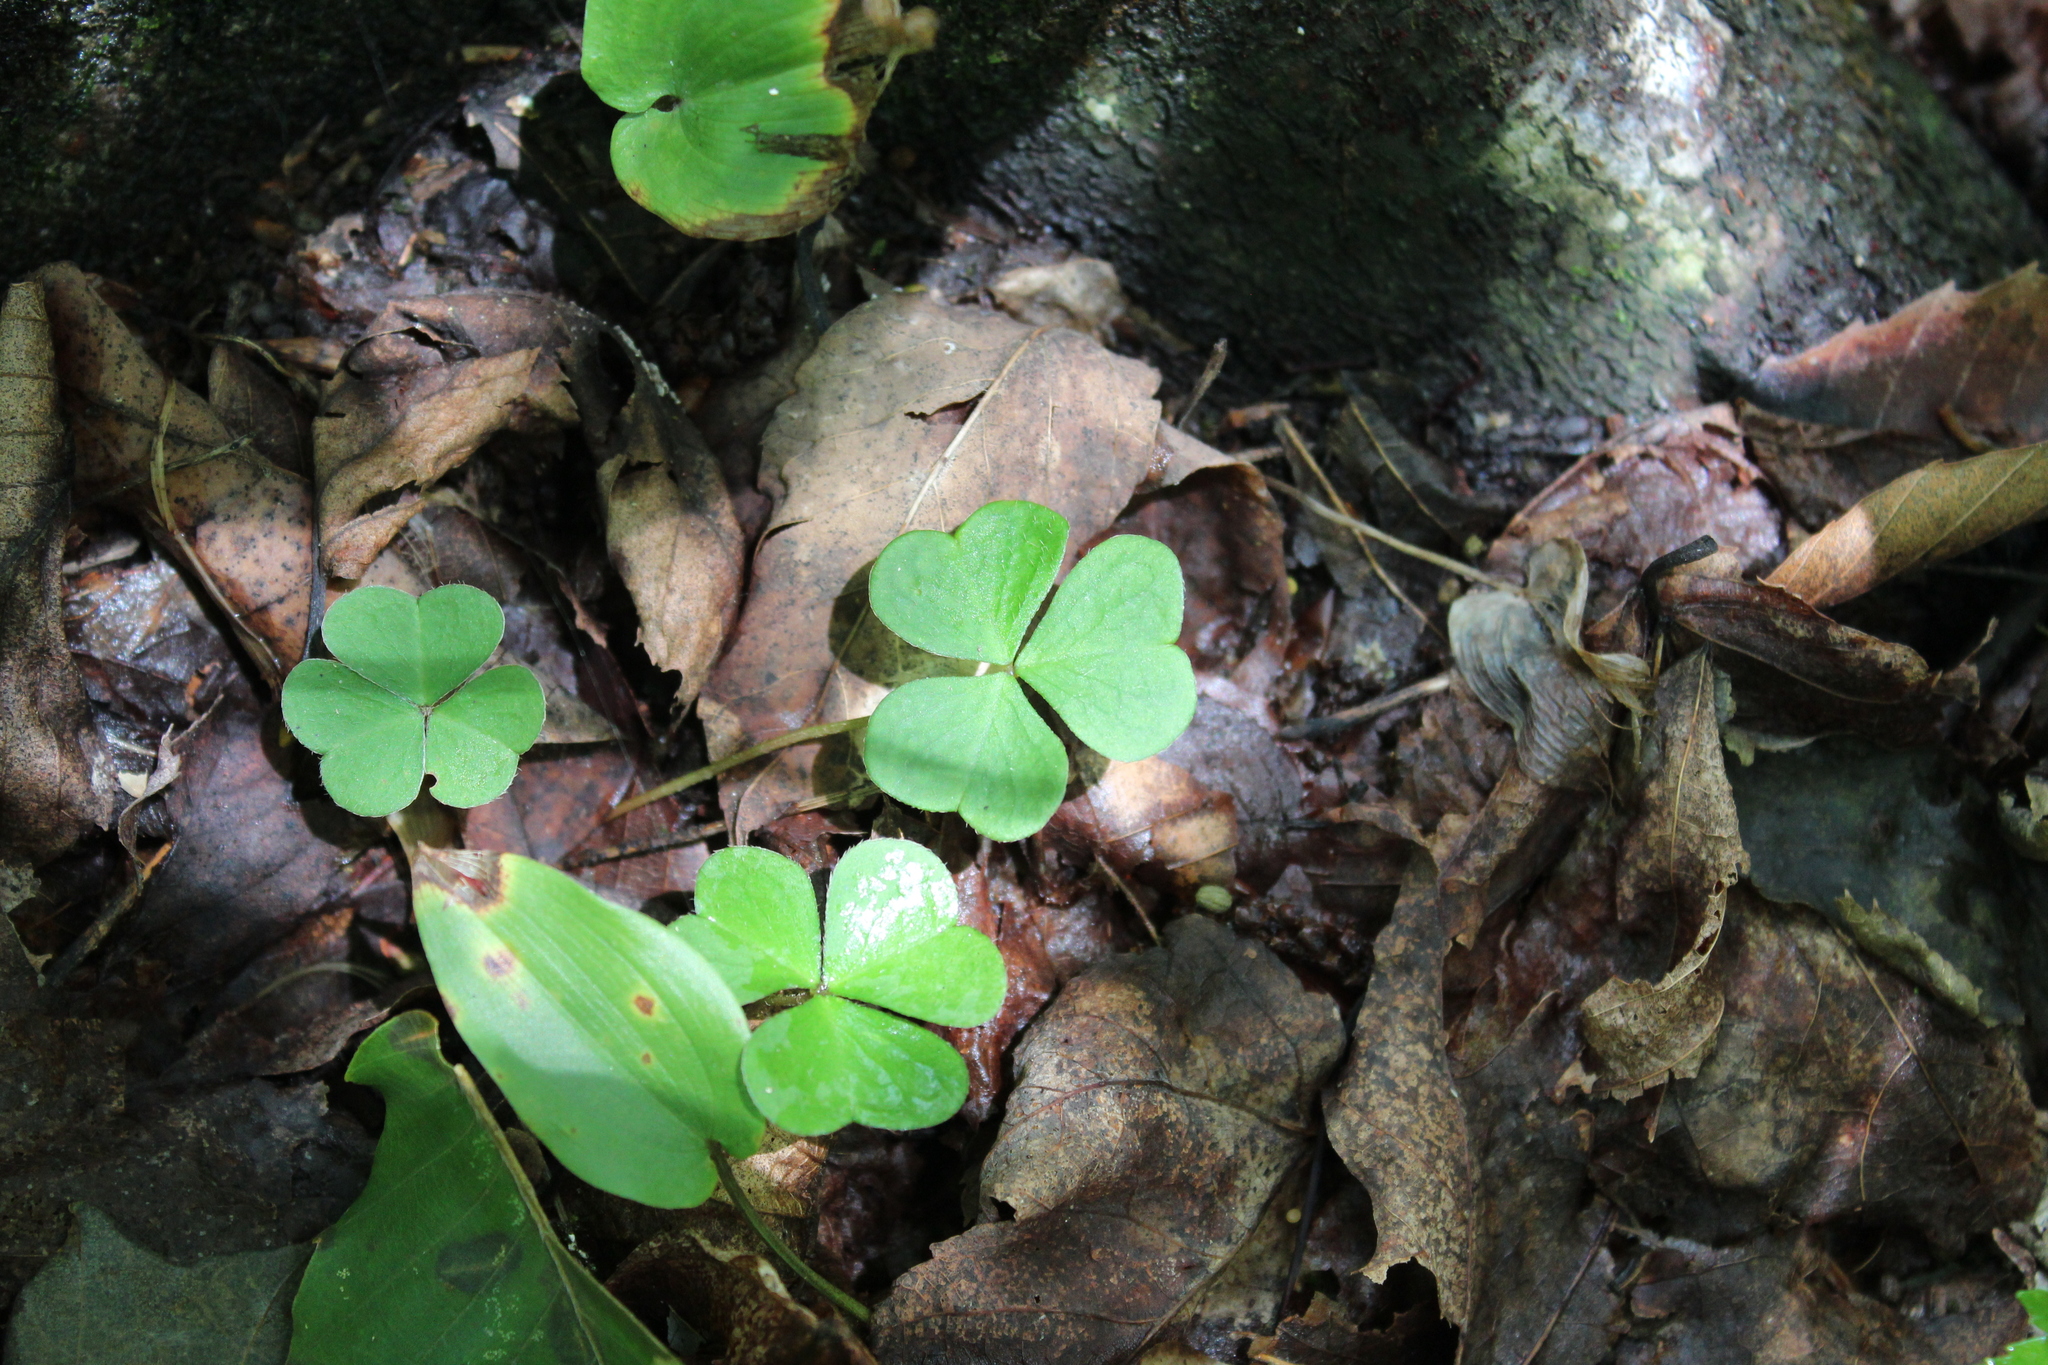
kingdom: Plantae
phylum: Tracheophyta
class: Magnoliopsida
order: Oxalidales
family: Oxalidaceae
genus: Oxalis
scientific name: Oxalis montana
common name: American wood-sorrel
